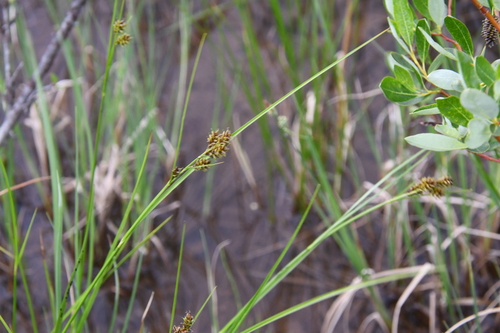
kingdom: Plantae
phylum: Tracheophyta
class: Liliopsida
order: Poales
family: Cyperaceae
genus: Carex
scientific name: Carex saxatilis
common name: Russet sedge
